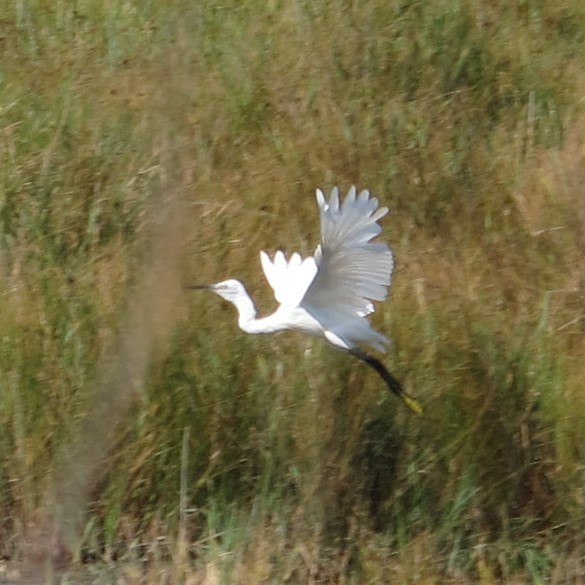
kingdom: Animalia
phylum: Chordata
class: Aves
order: Pelecaniformes
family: Ardeidae
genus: Egretta
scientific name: Egretta garzetta
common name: Little egret
